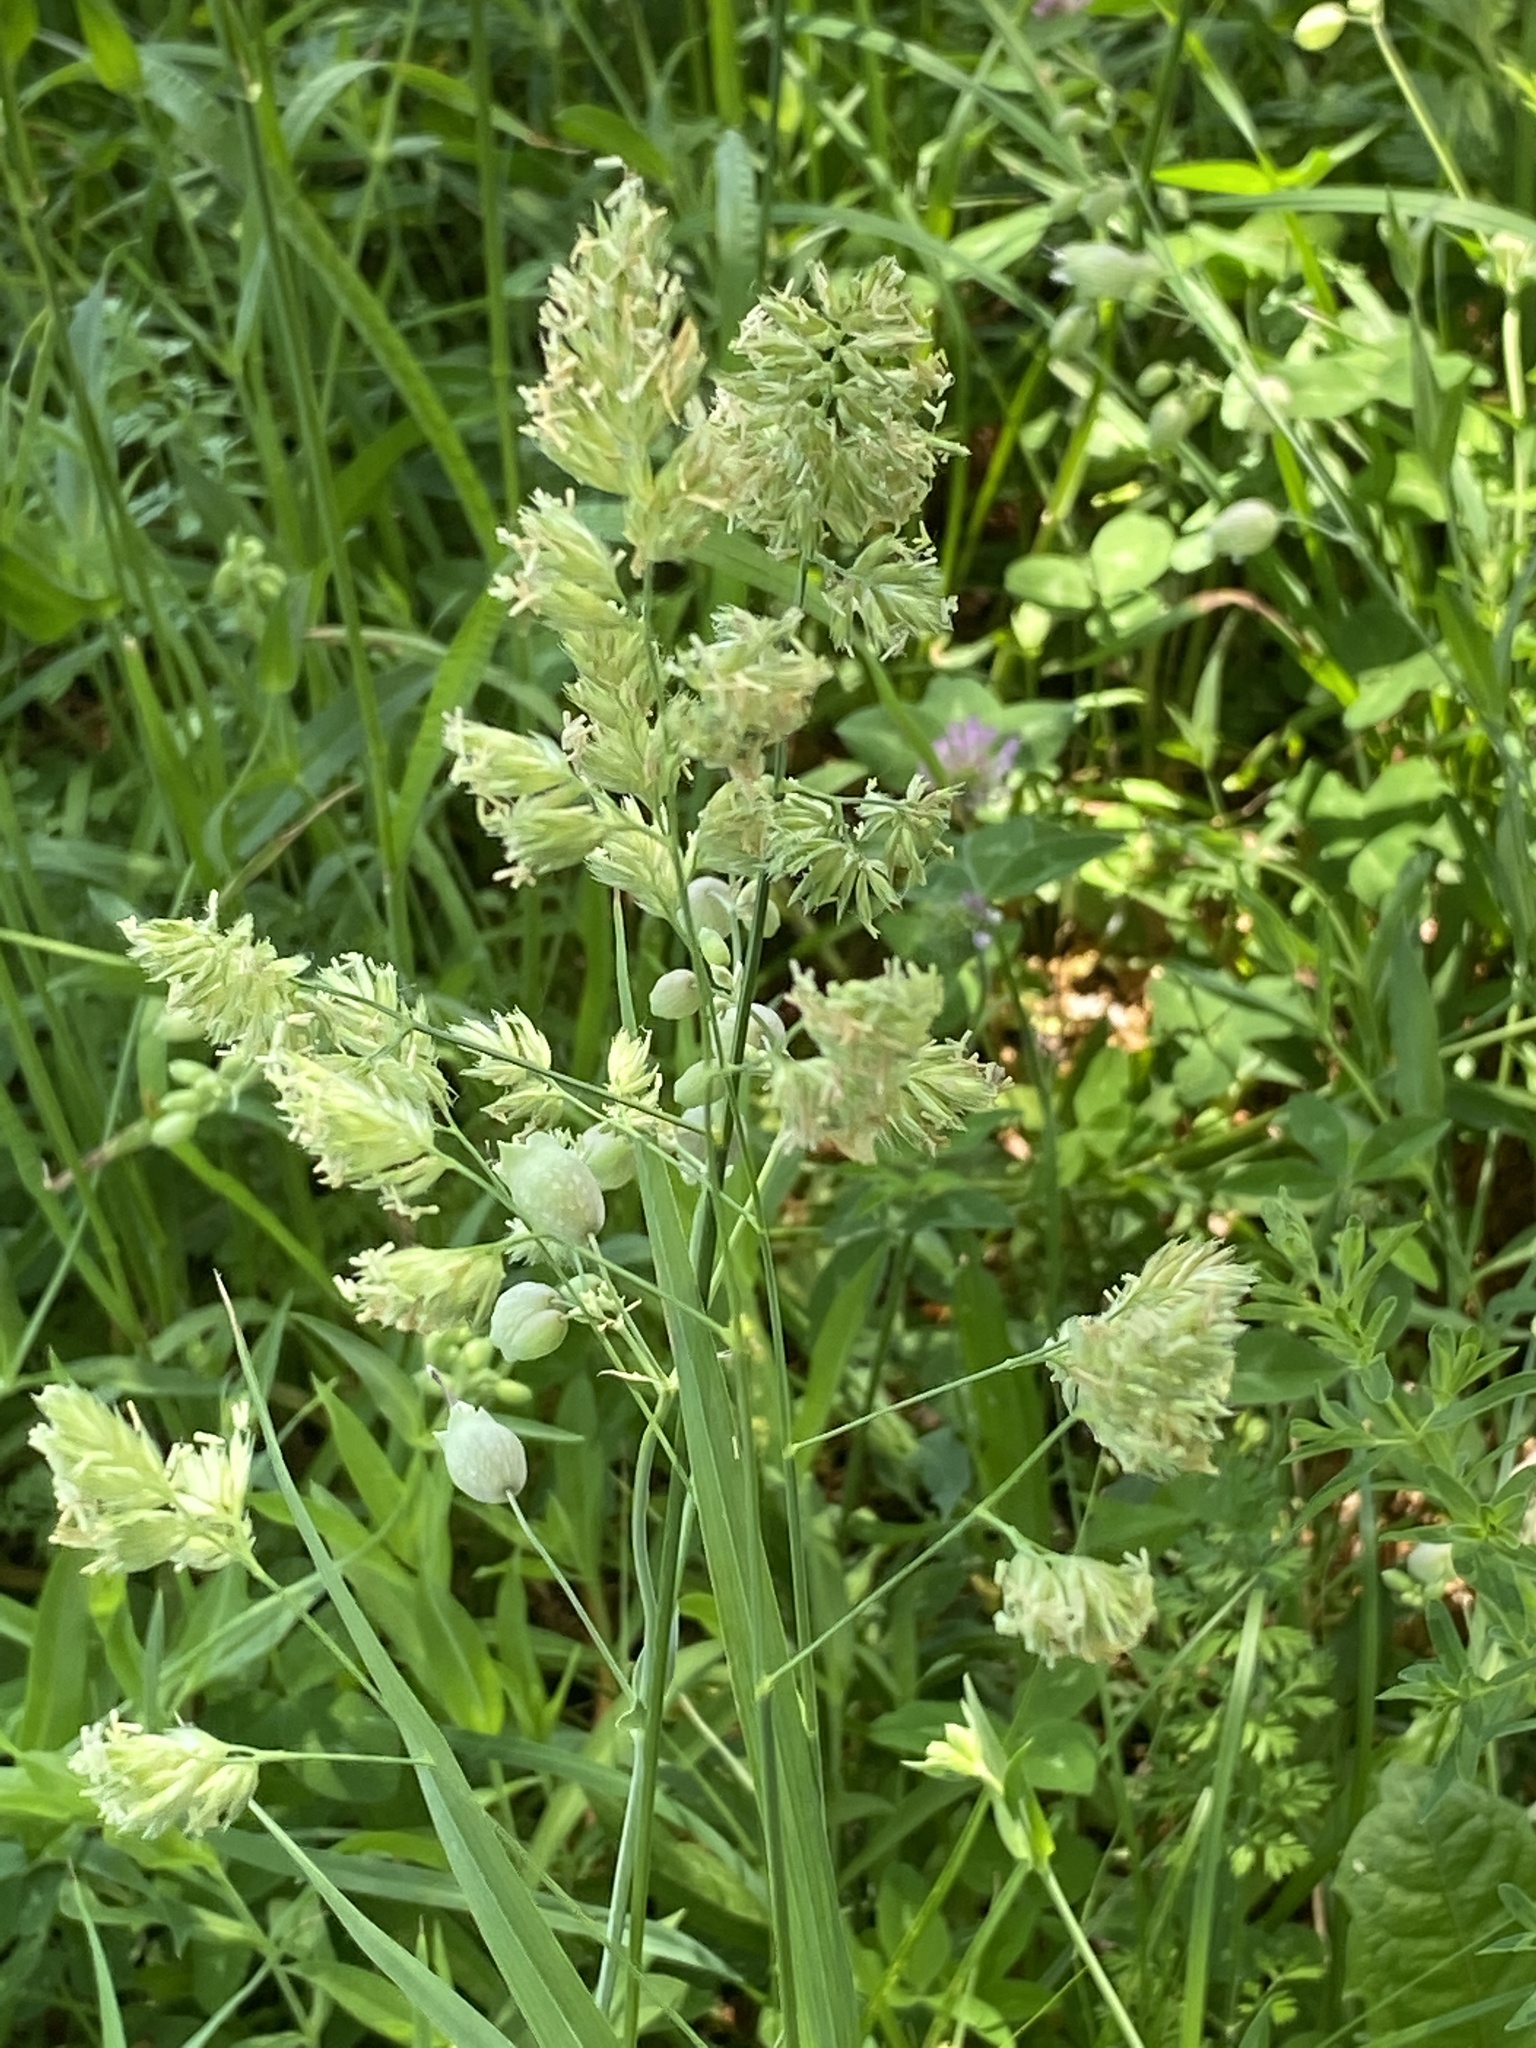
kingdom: Plantae
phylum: Tracheophyta
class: Liliopsida
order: Poales
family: Poaceae
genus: Dactylis
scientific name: Dactylis glomerata
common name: Orchardgrass
